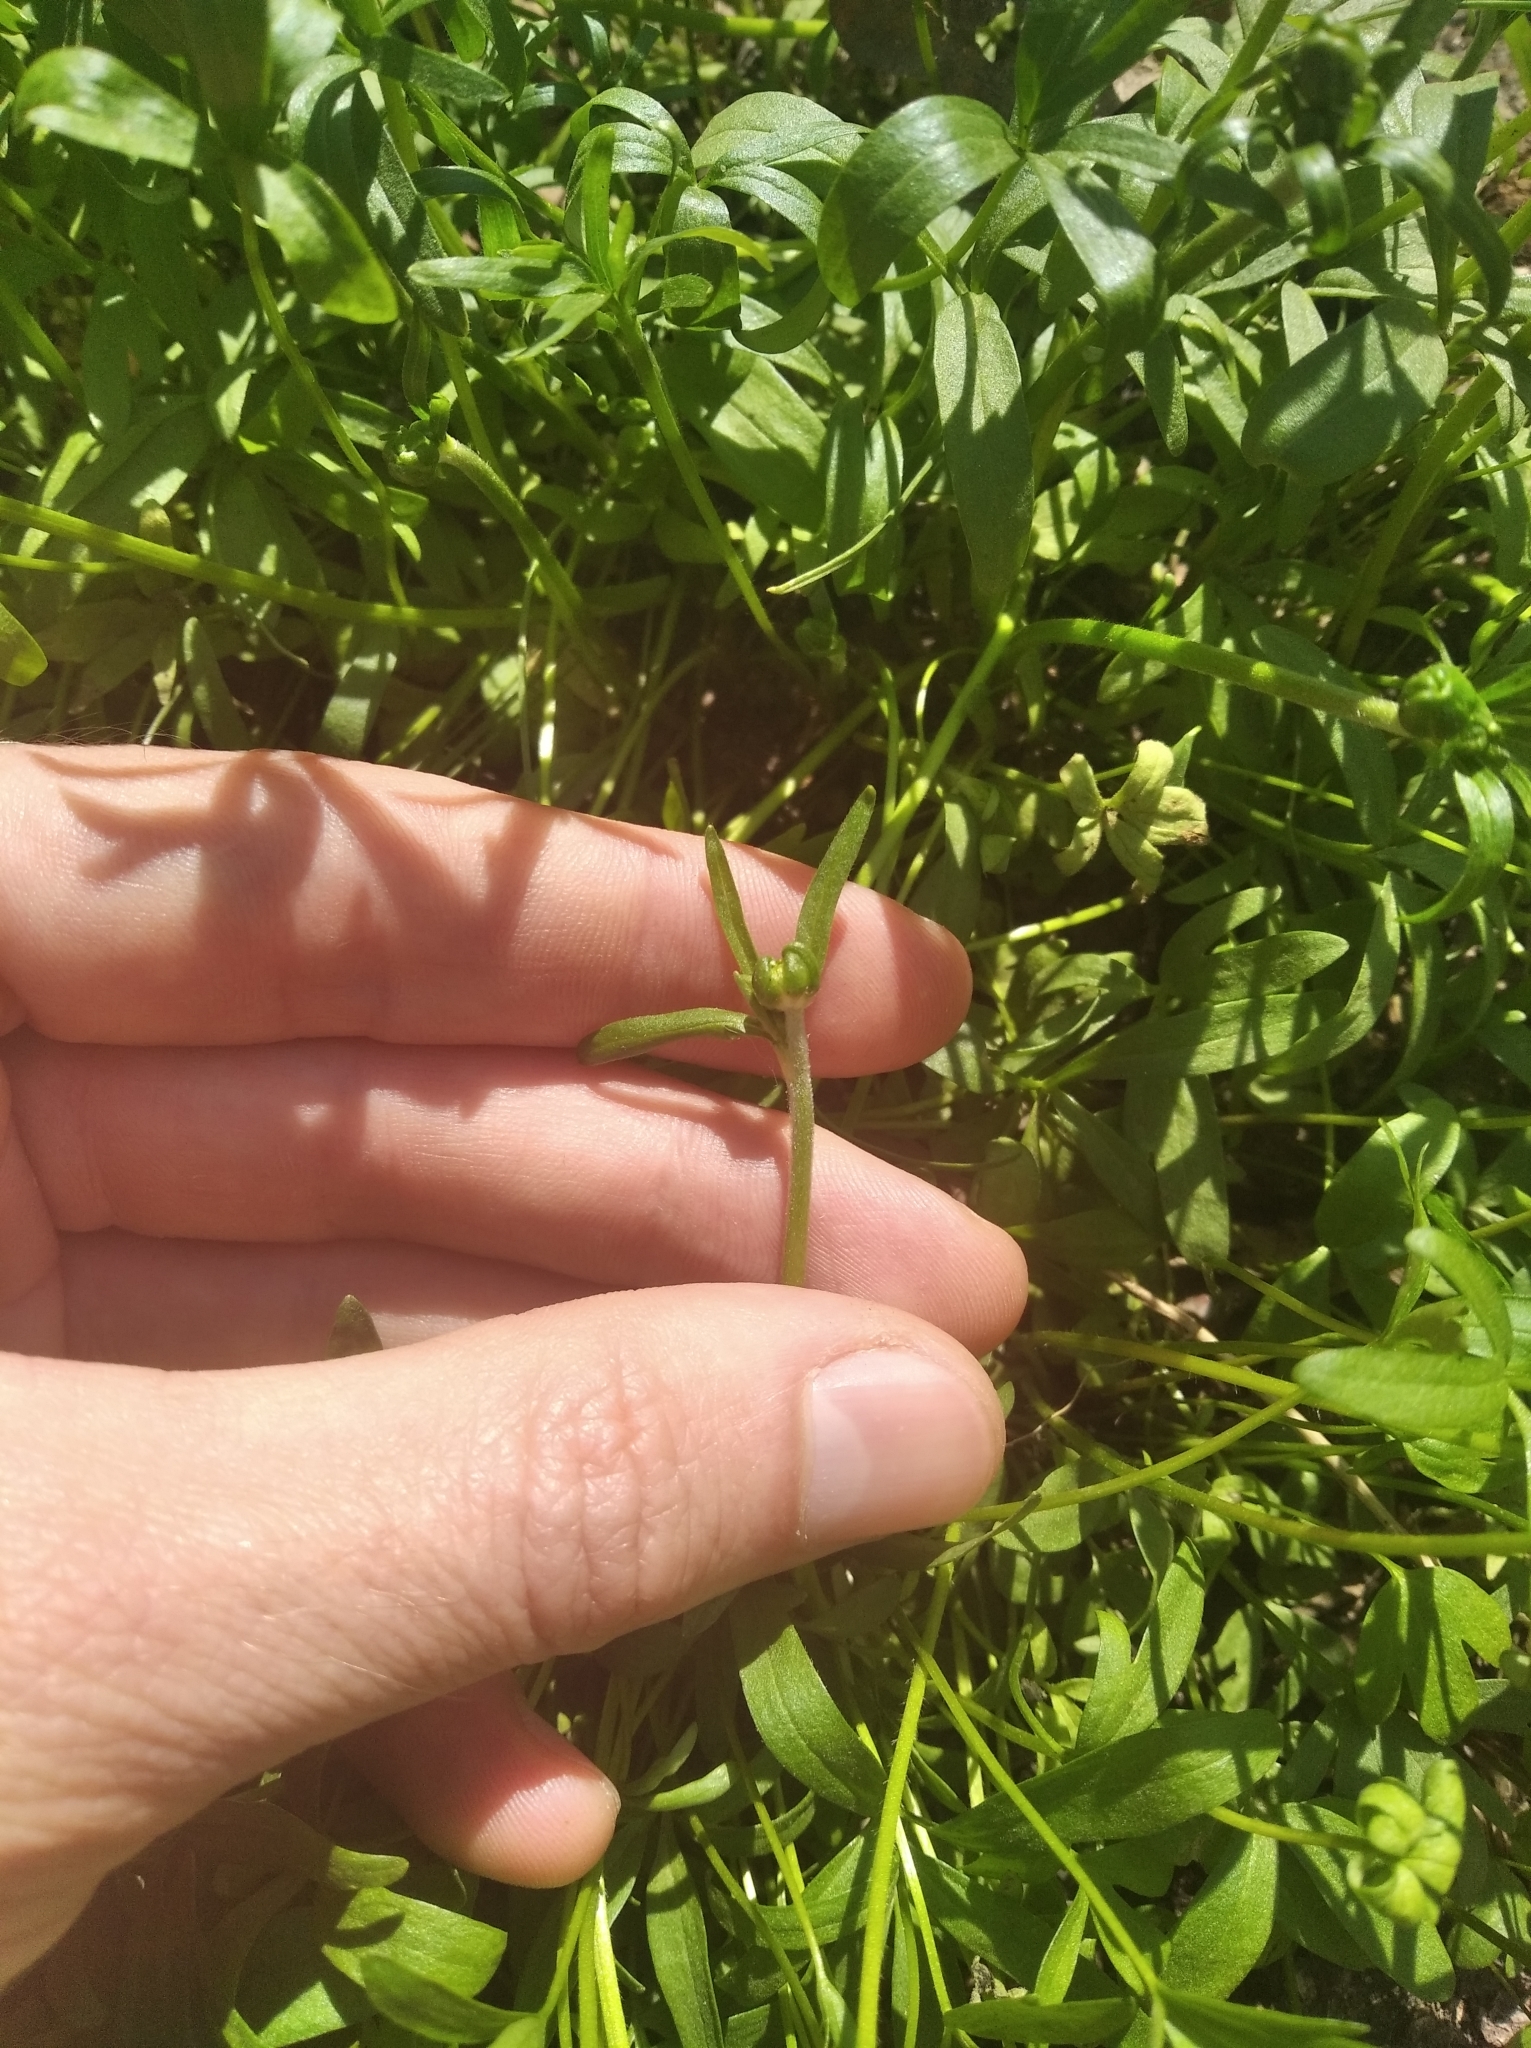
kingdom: Plantae
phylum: Tracheophyta
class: Magnoliopsida
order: Ranunculales
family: Ranunculaceae
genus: Ranunculus
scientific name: Ranunculus pedatus
